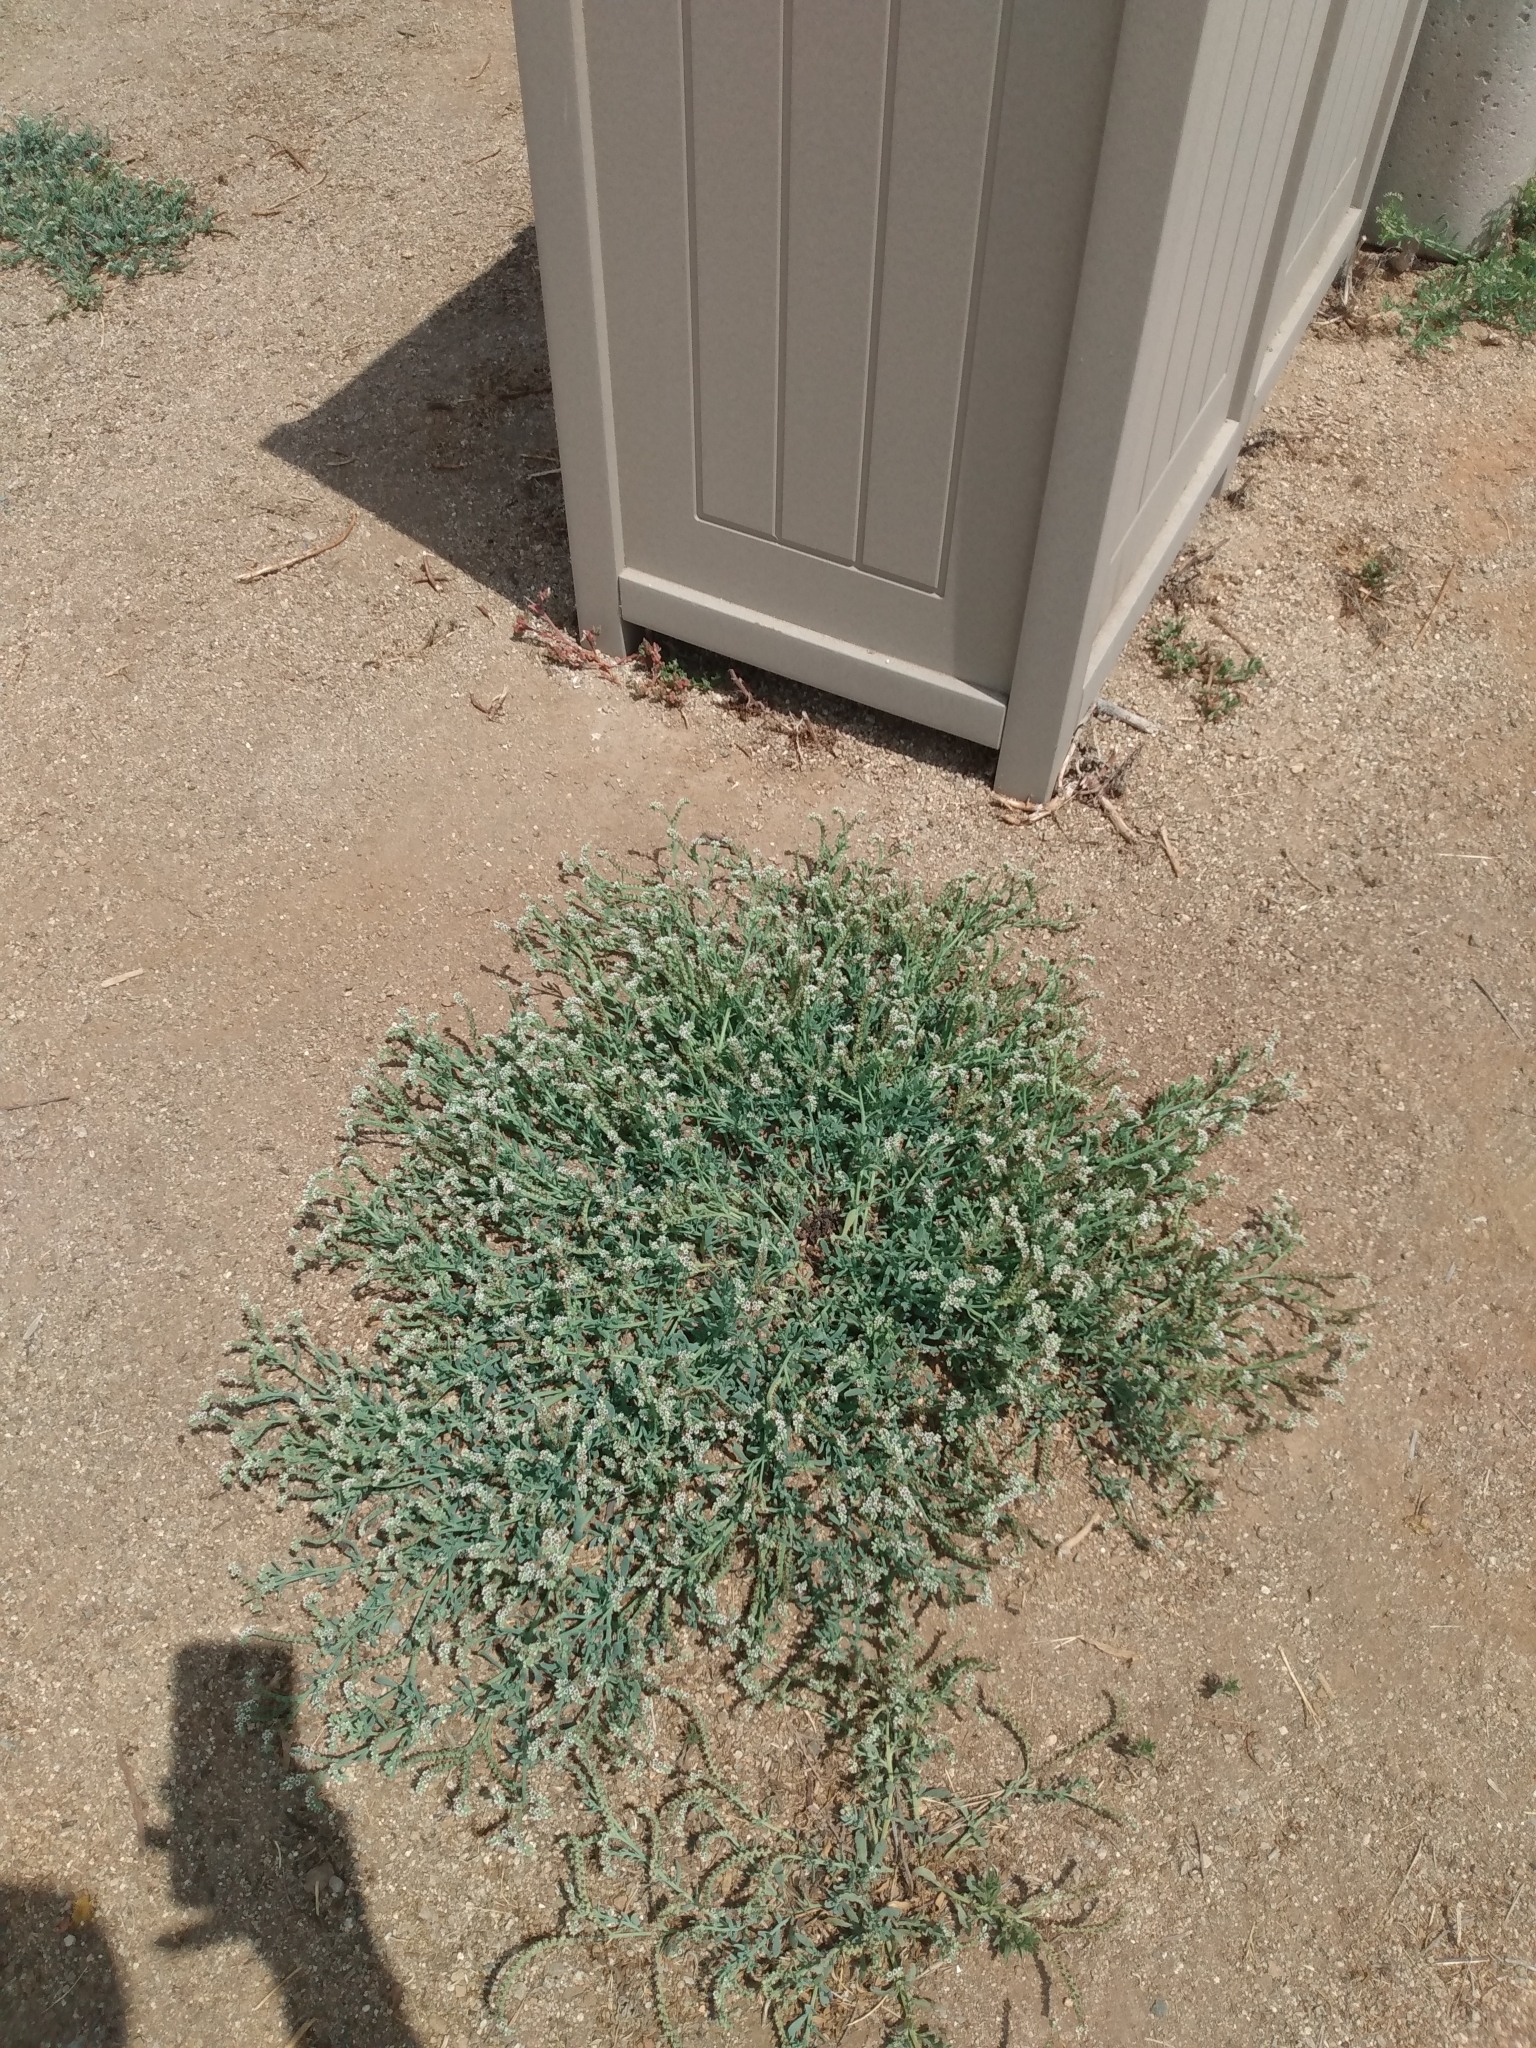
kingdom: Plantae
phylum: Tracheophyta
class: Magnoliopsida
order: Boraginales
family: Heliotropiaceae
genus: Heliotropium
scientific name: Heliotropium curassavicum
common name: Seaside heliotrope
